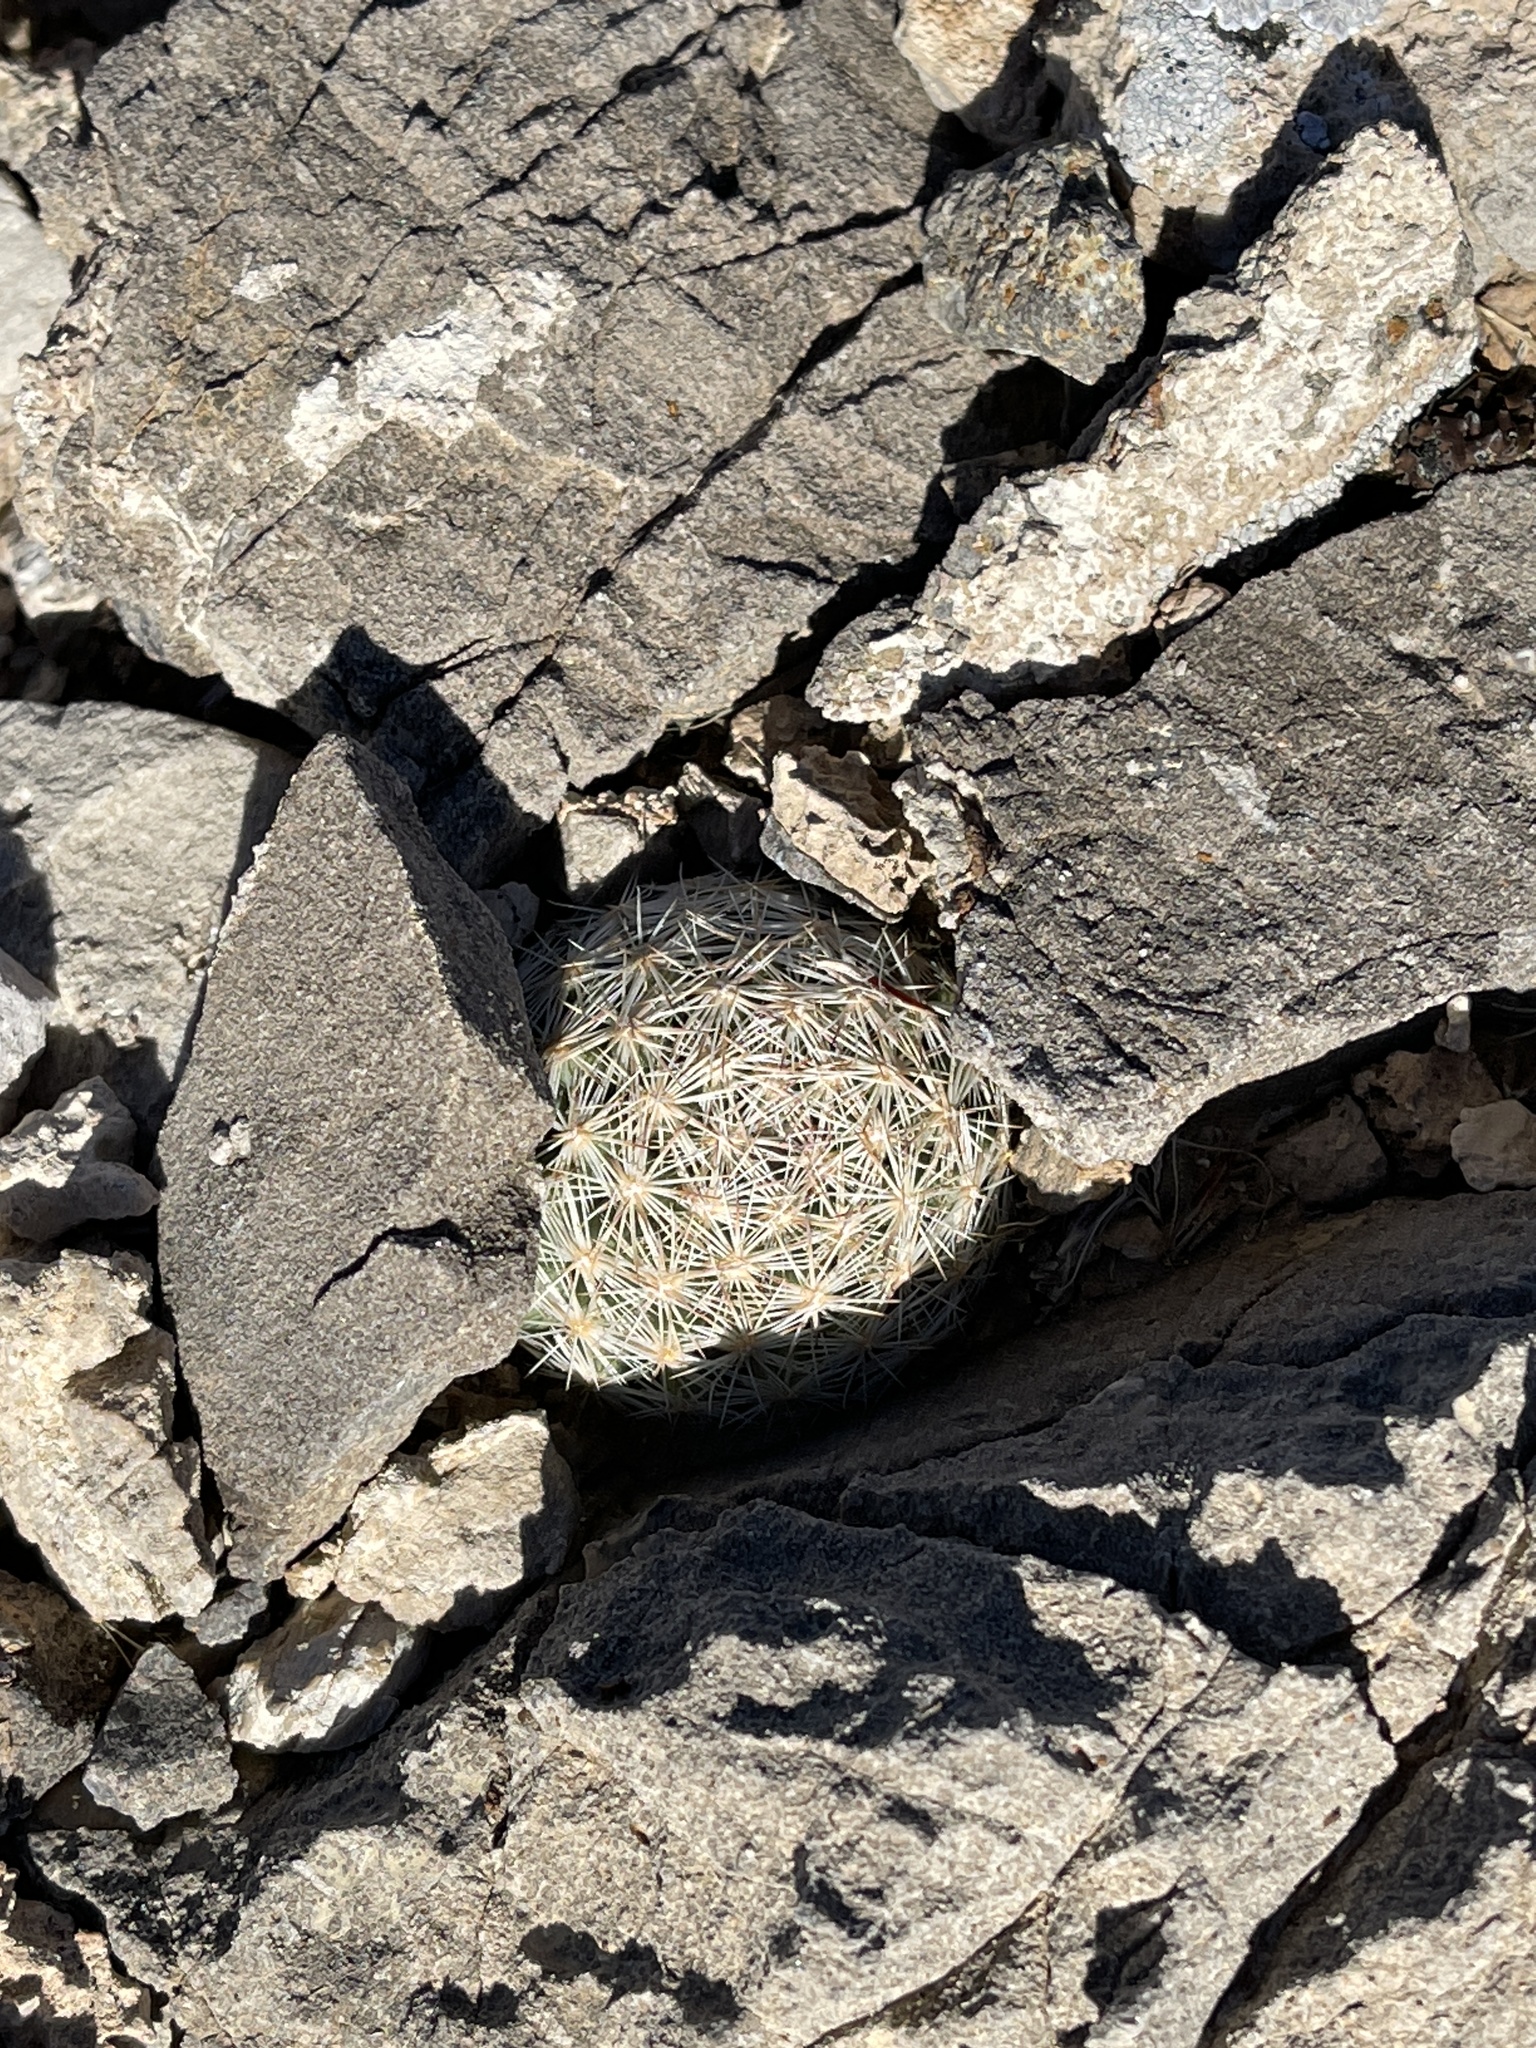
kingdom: Plantae
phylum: Tracheophyta
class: Magnoliopsida
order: Caryophyllales
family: Cactaceae
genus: Pelecyphora
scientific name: Pelecyphora dasyacantha
